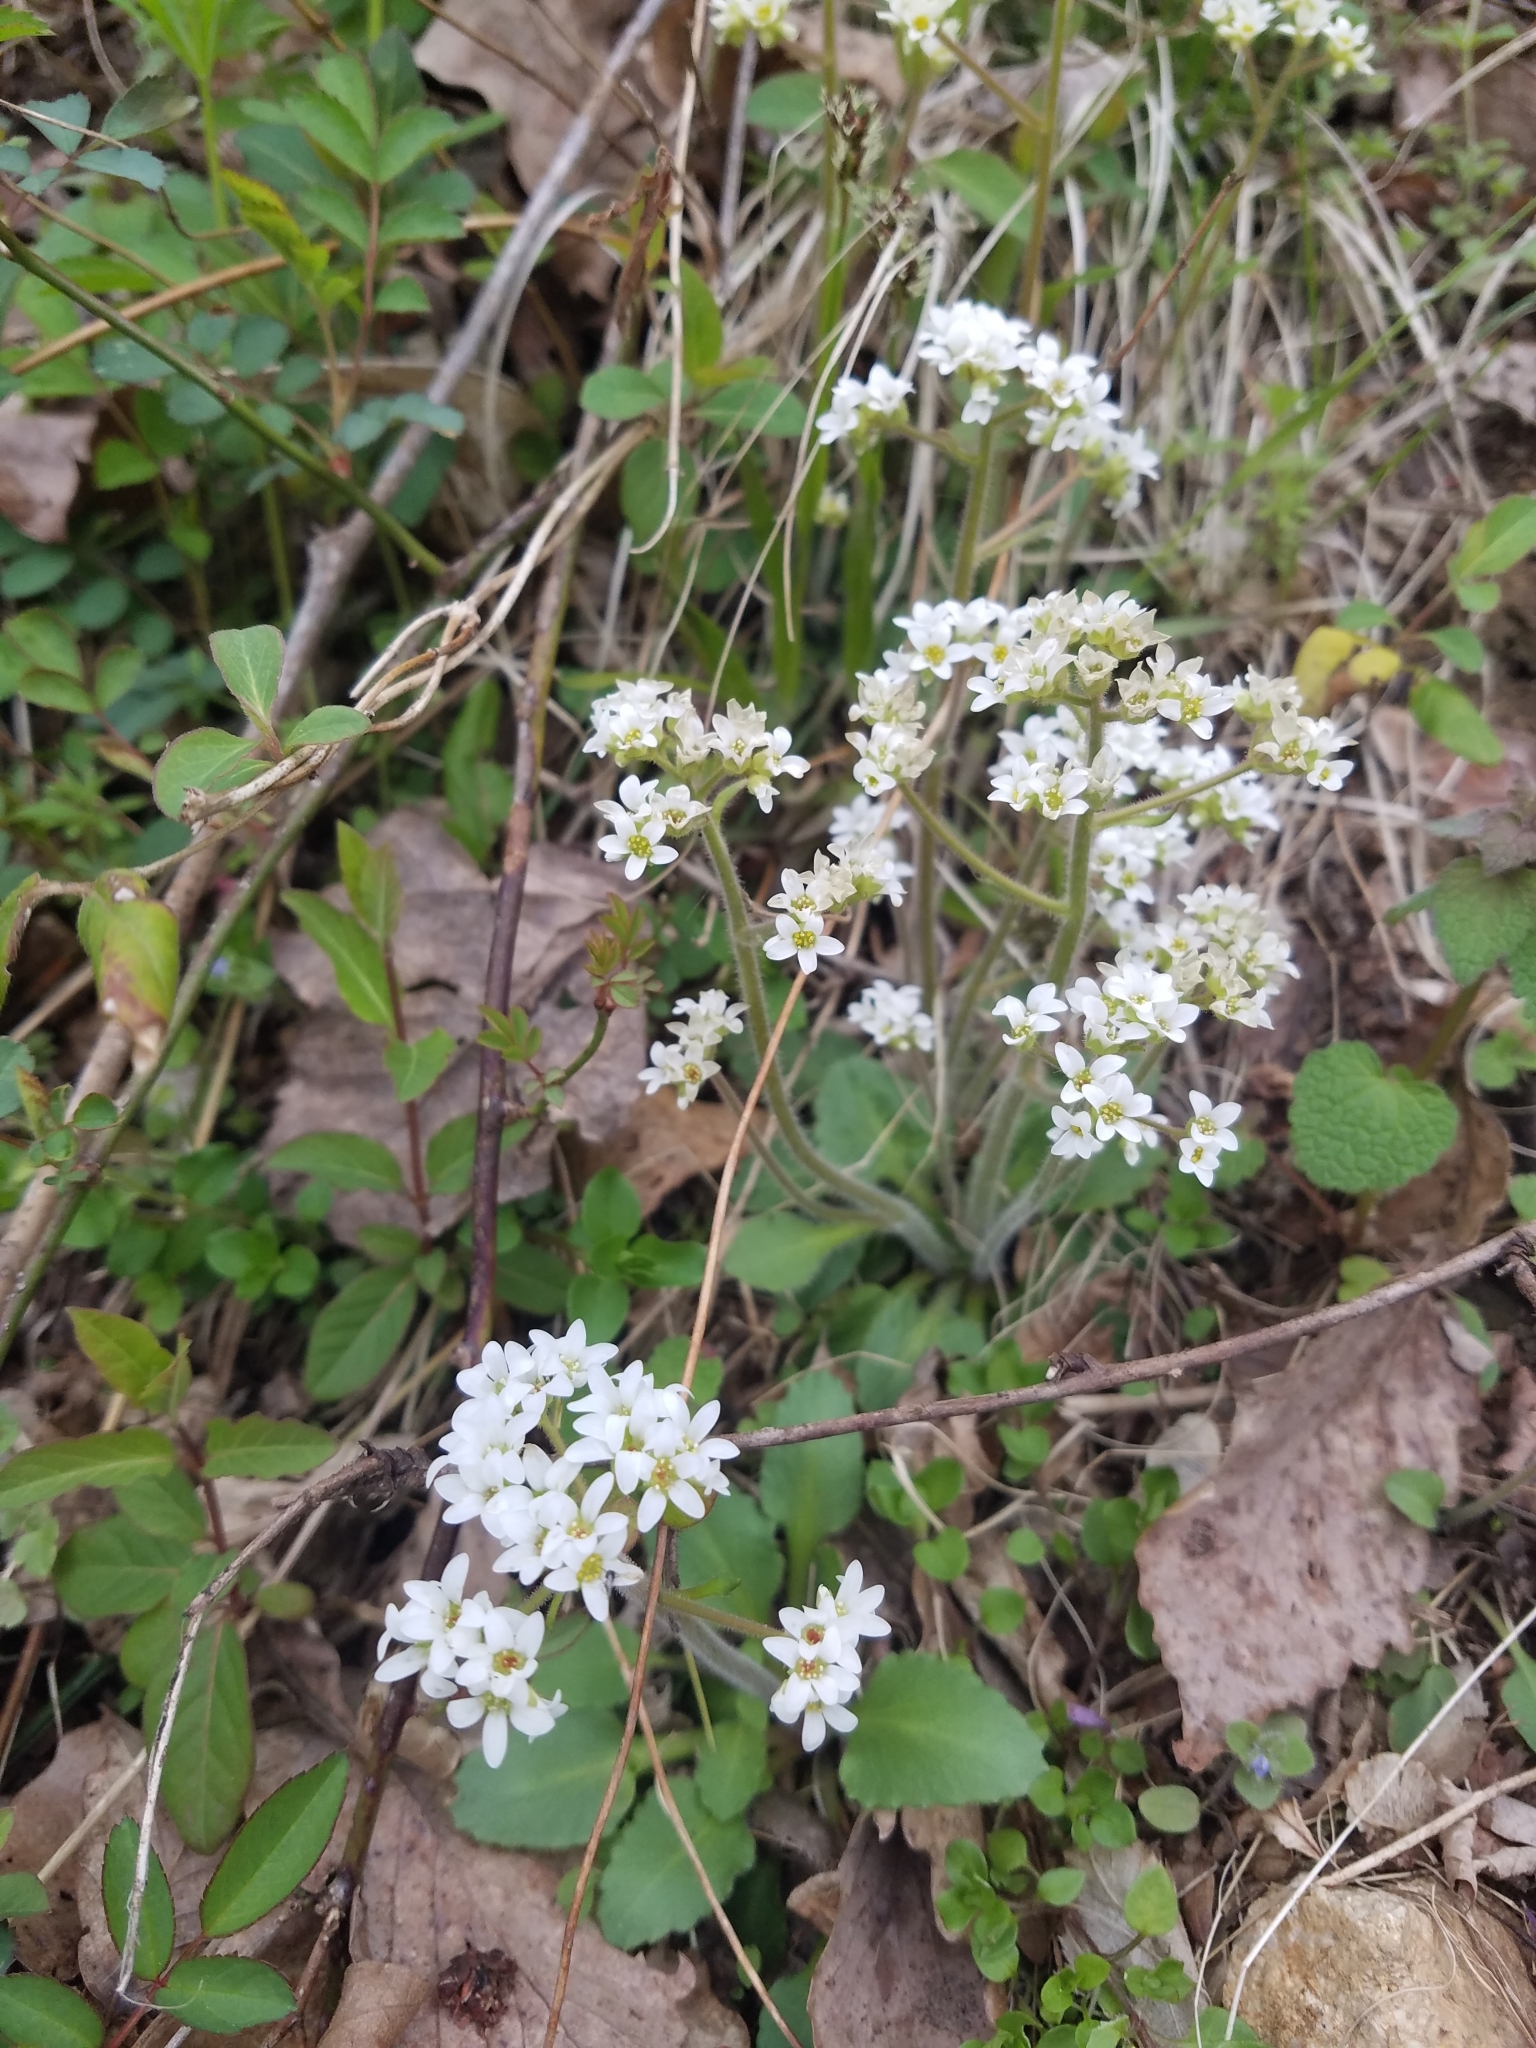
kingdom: Plantae
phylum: Tracheophyta
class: Magnoliopsida
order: Saxifragales
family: Saxifragaceae
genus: Micranthes
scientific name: Micranthes virginiensis
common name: Early saxifrage
